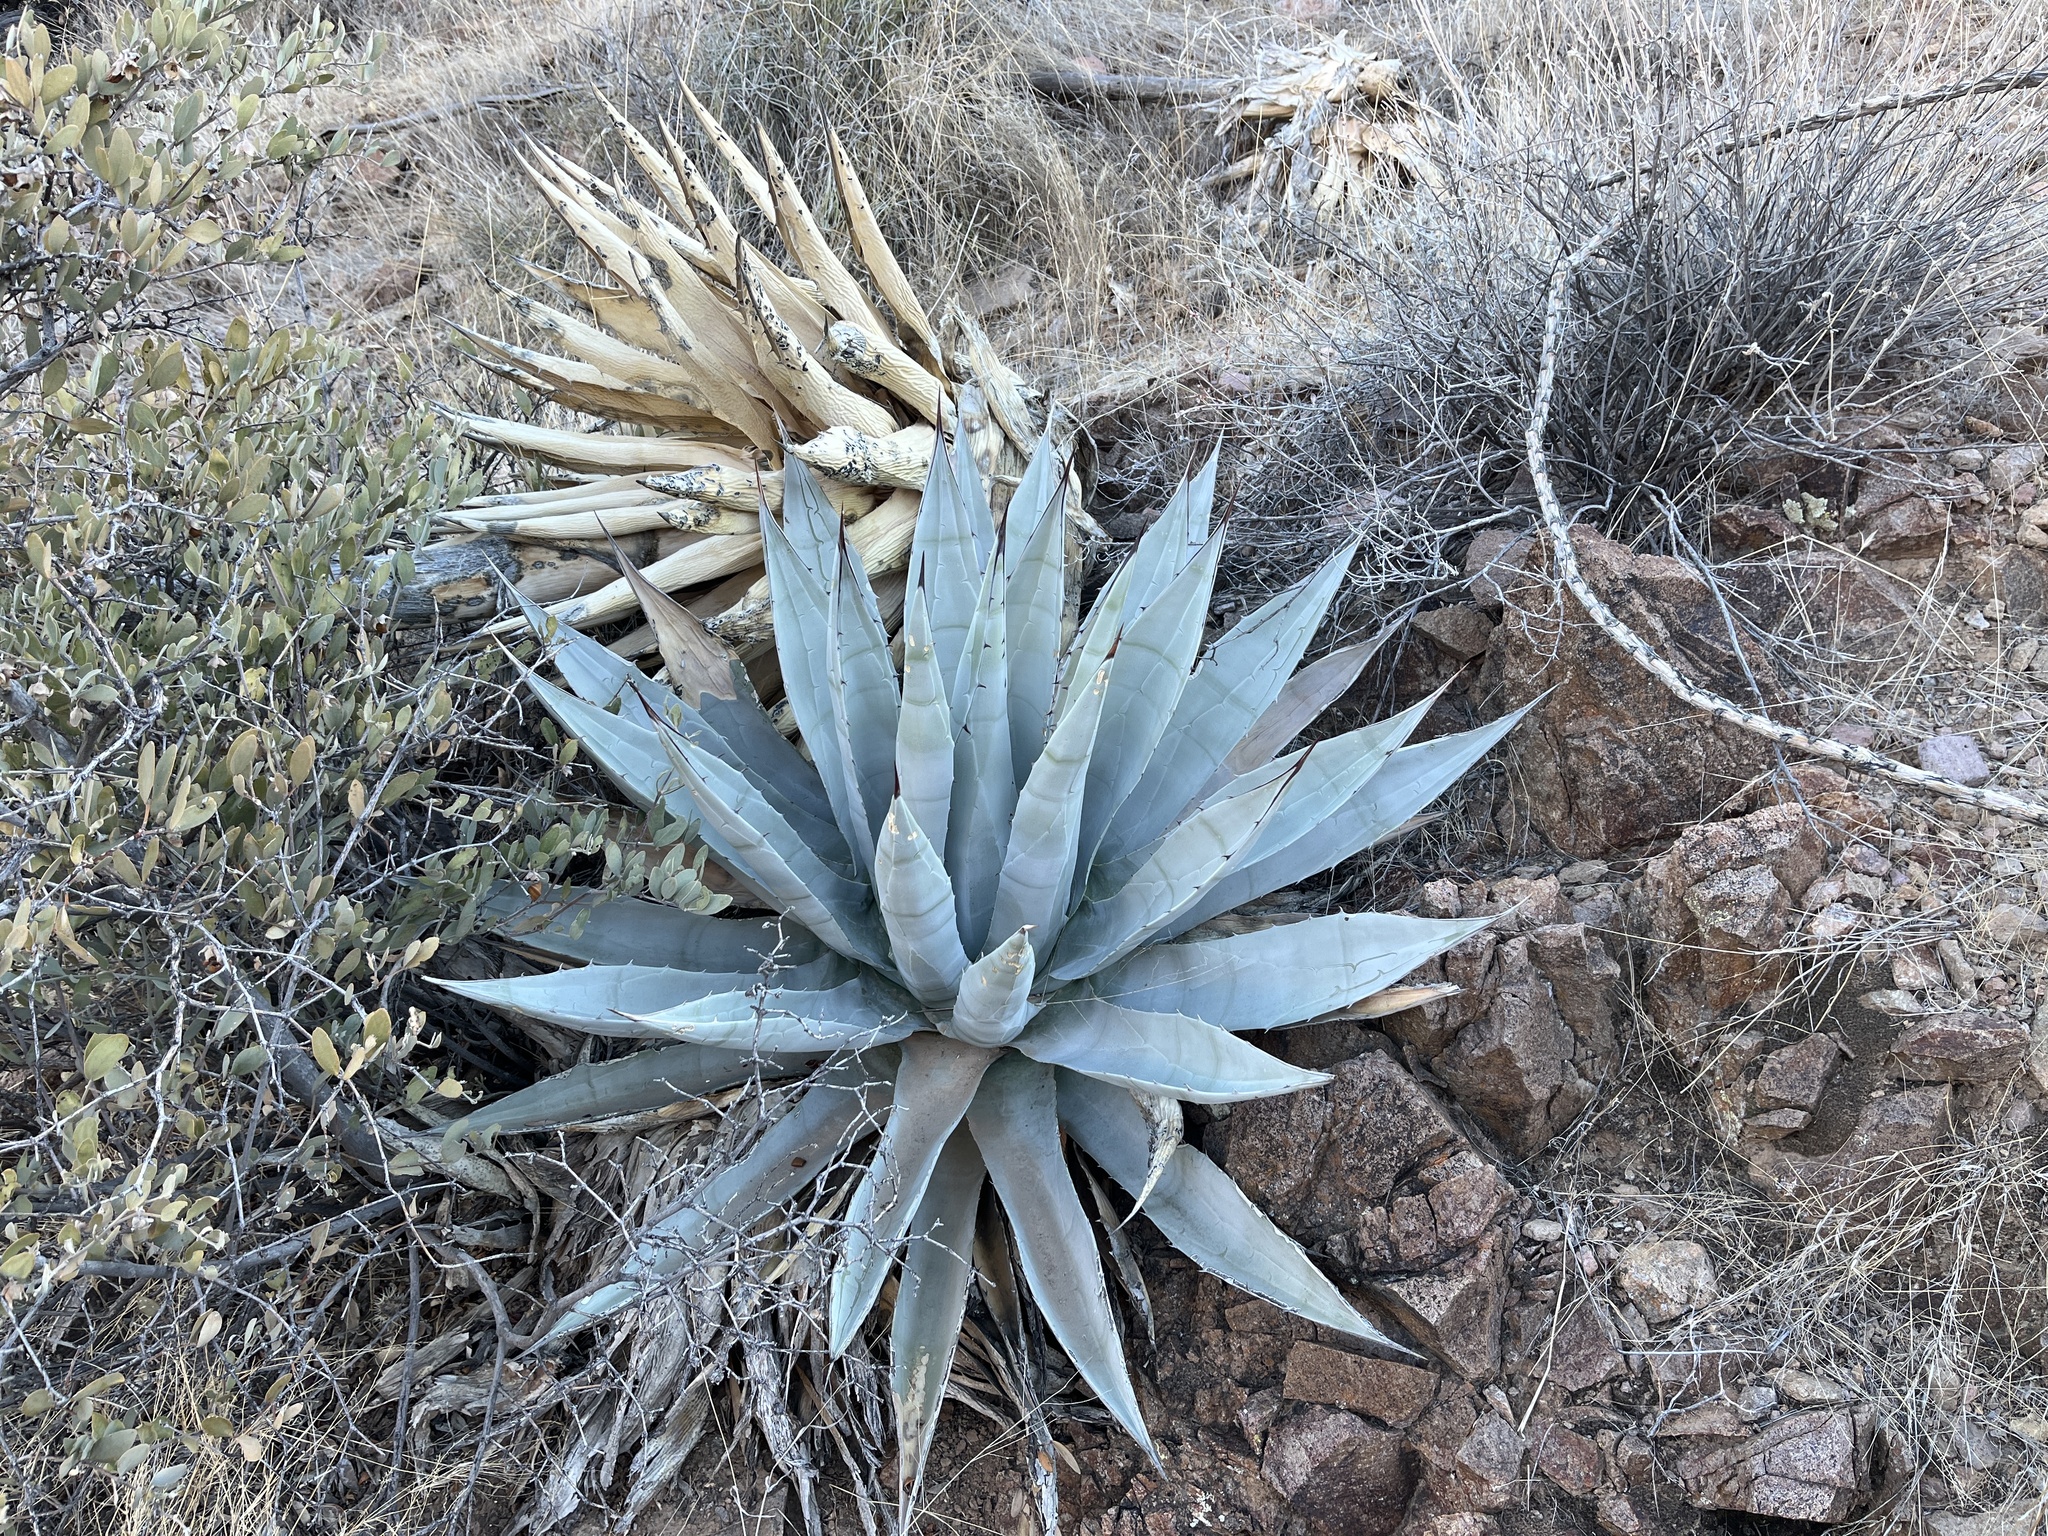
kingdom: Plantae
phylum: Tracheophyta
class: Liliopsida
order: Asparagales
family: Asparagaceae
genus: Agave
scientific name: Agave simplex
